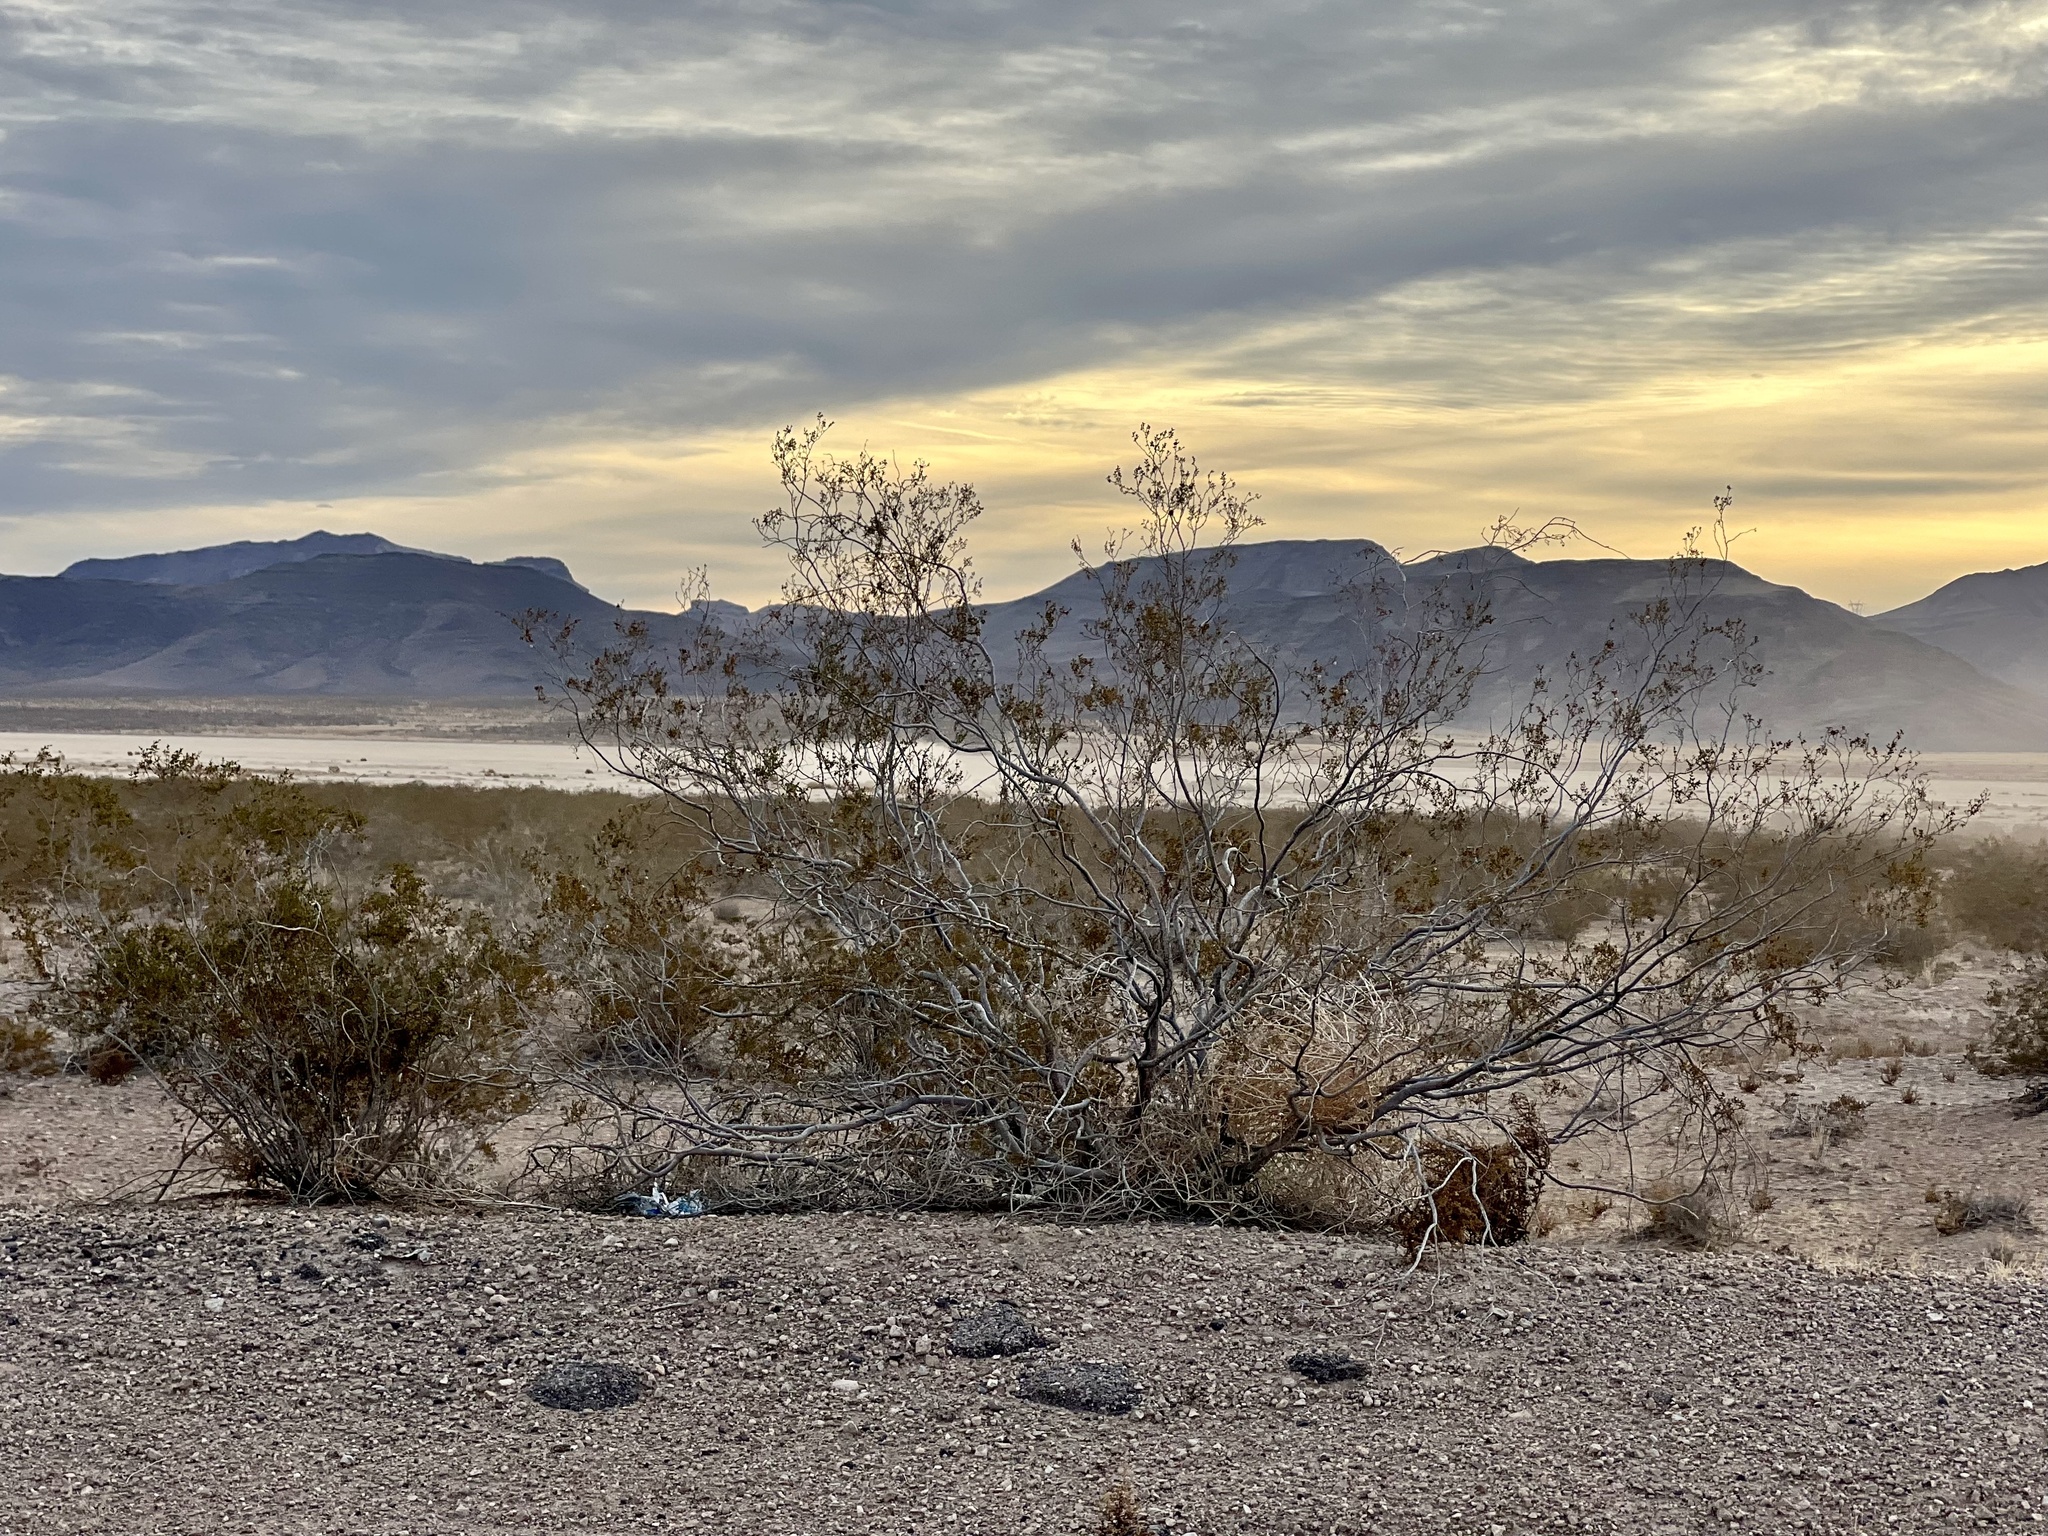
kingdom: Plantae
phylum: Tracheophyta
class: Magnoliopsida
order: Zygophyllales
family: Zygophyllaceae
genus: Larrea
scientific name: Larrea tridentata
